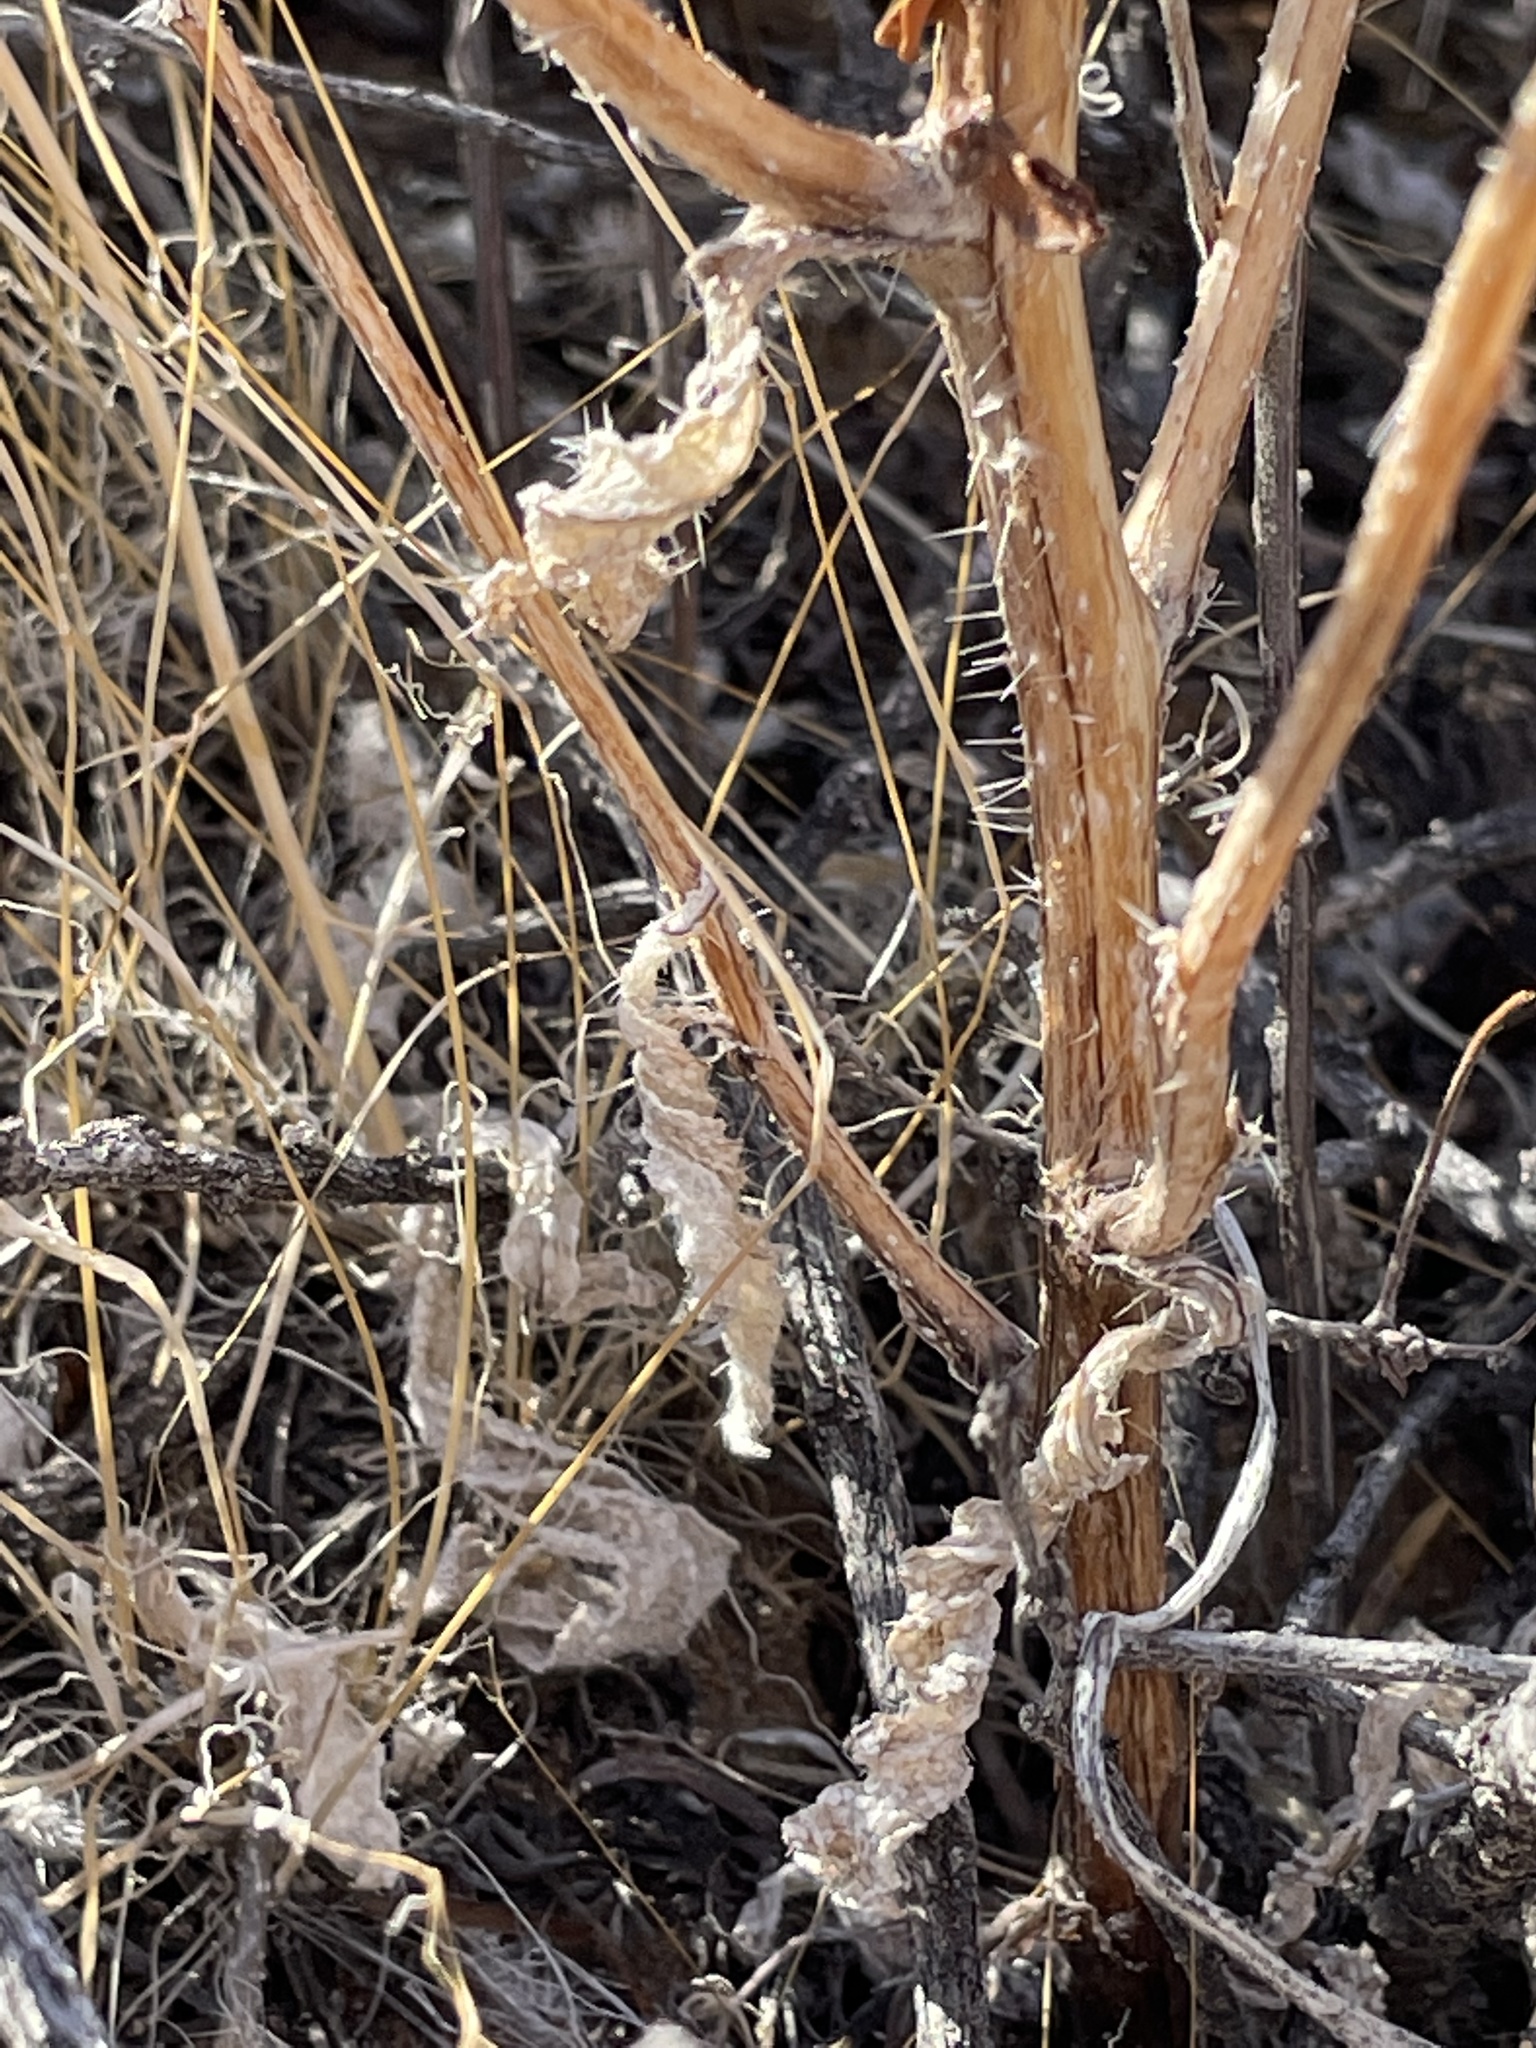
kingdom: Plantae
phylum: Tracheophyta
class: Magnoliopsida
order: Boraginales
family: Boraginaceae
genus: Amsinckia
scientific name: Amsinckia tessellata
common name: Tessellate fiddleneck
